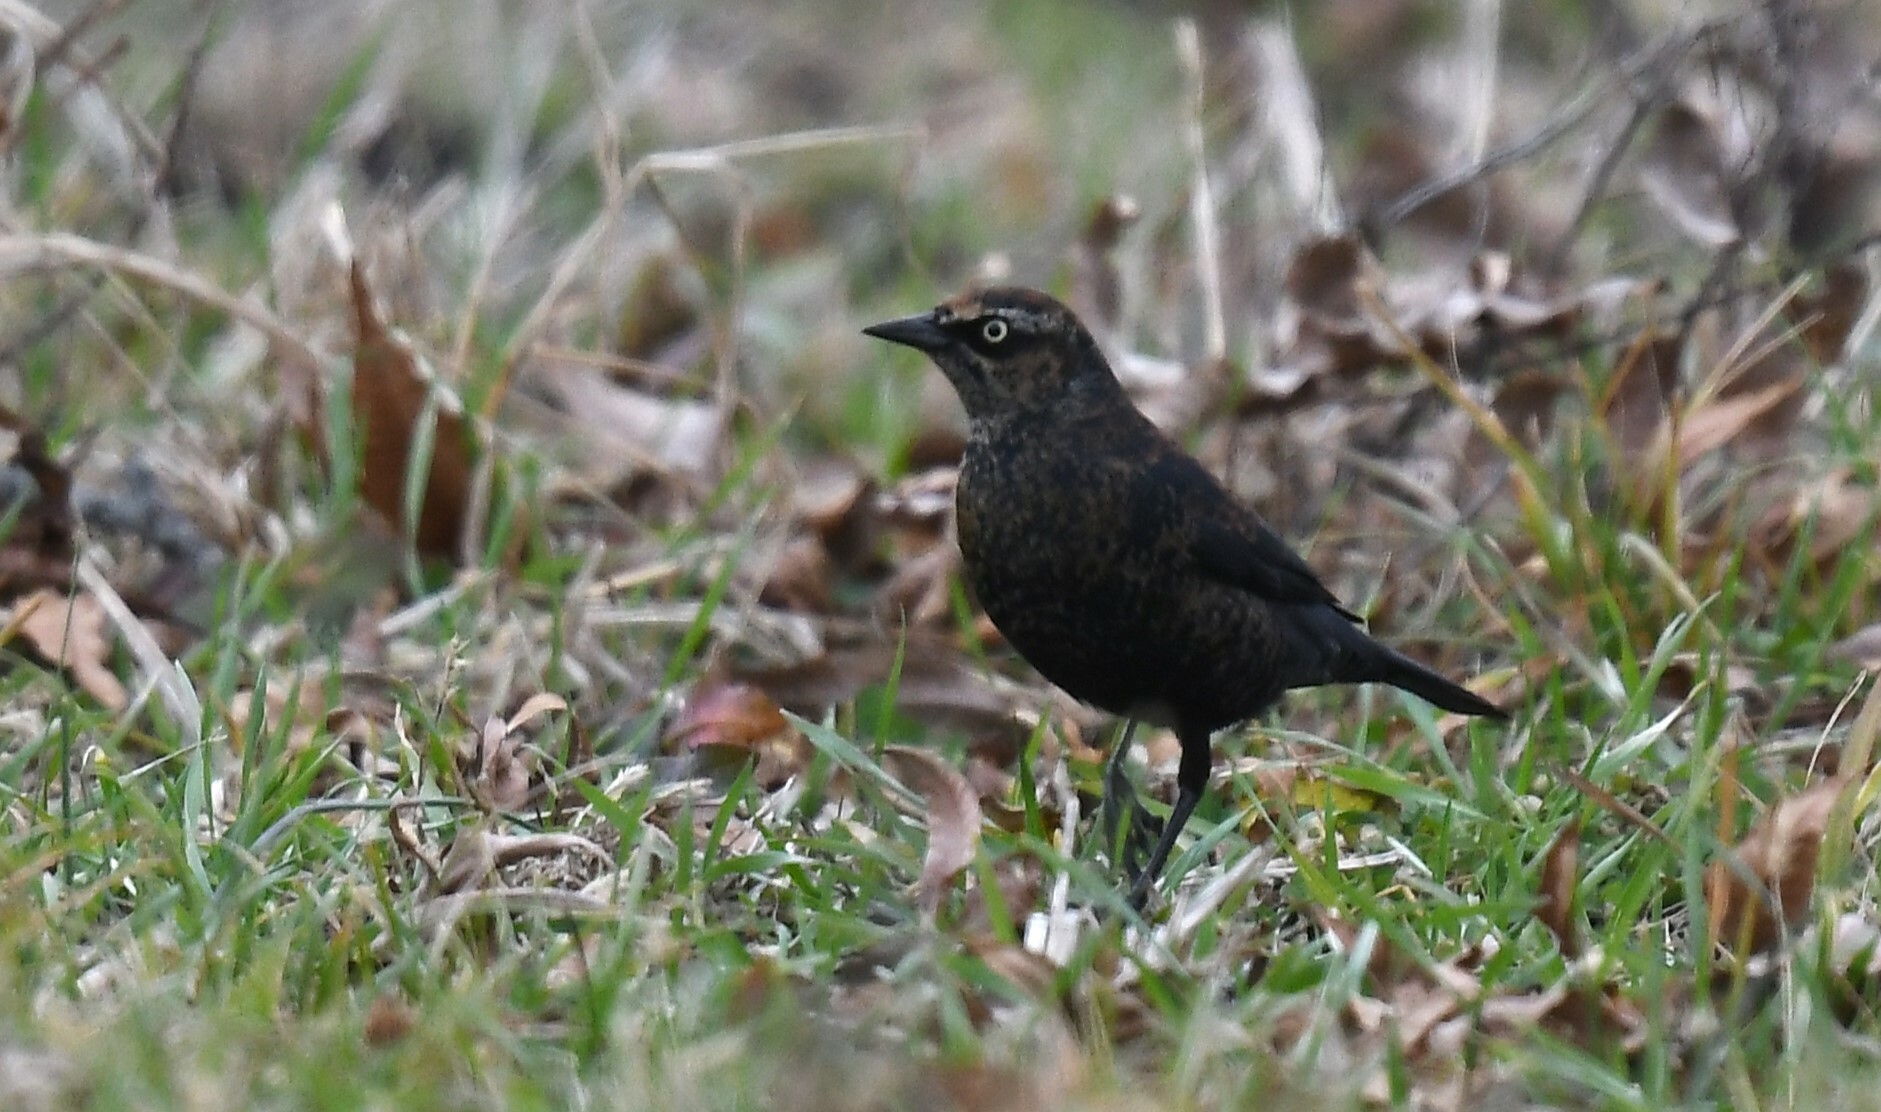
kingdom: Animalia
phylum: Chordata
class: Aves
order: Passeriformes
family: Icteridae
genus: Euphagus
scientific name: Euphagus carolinus
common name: Rusty blackbird
